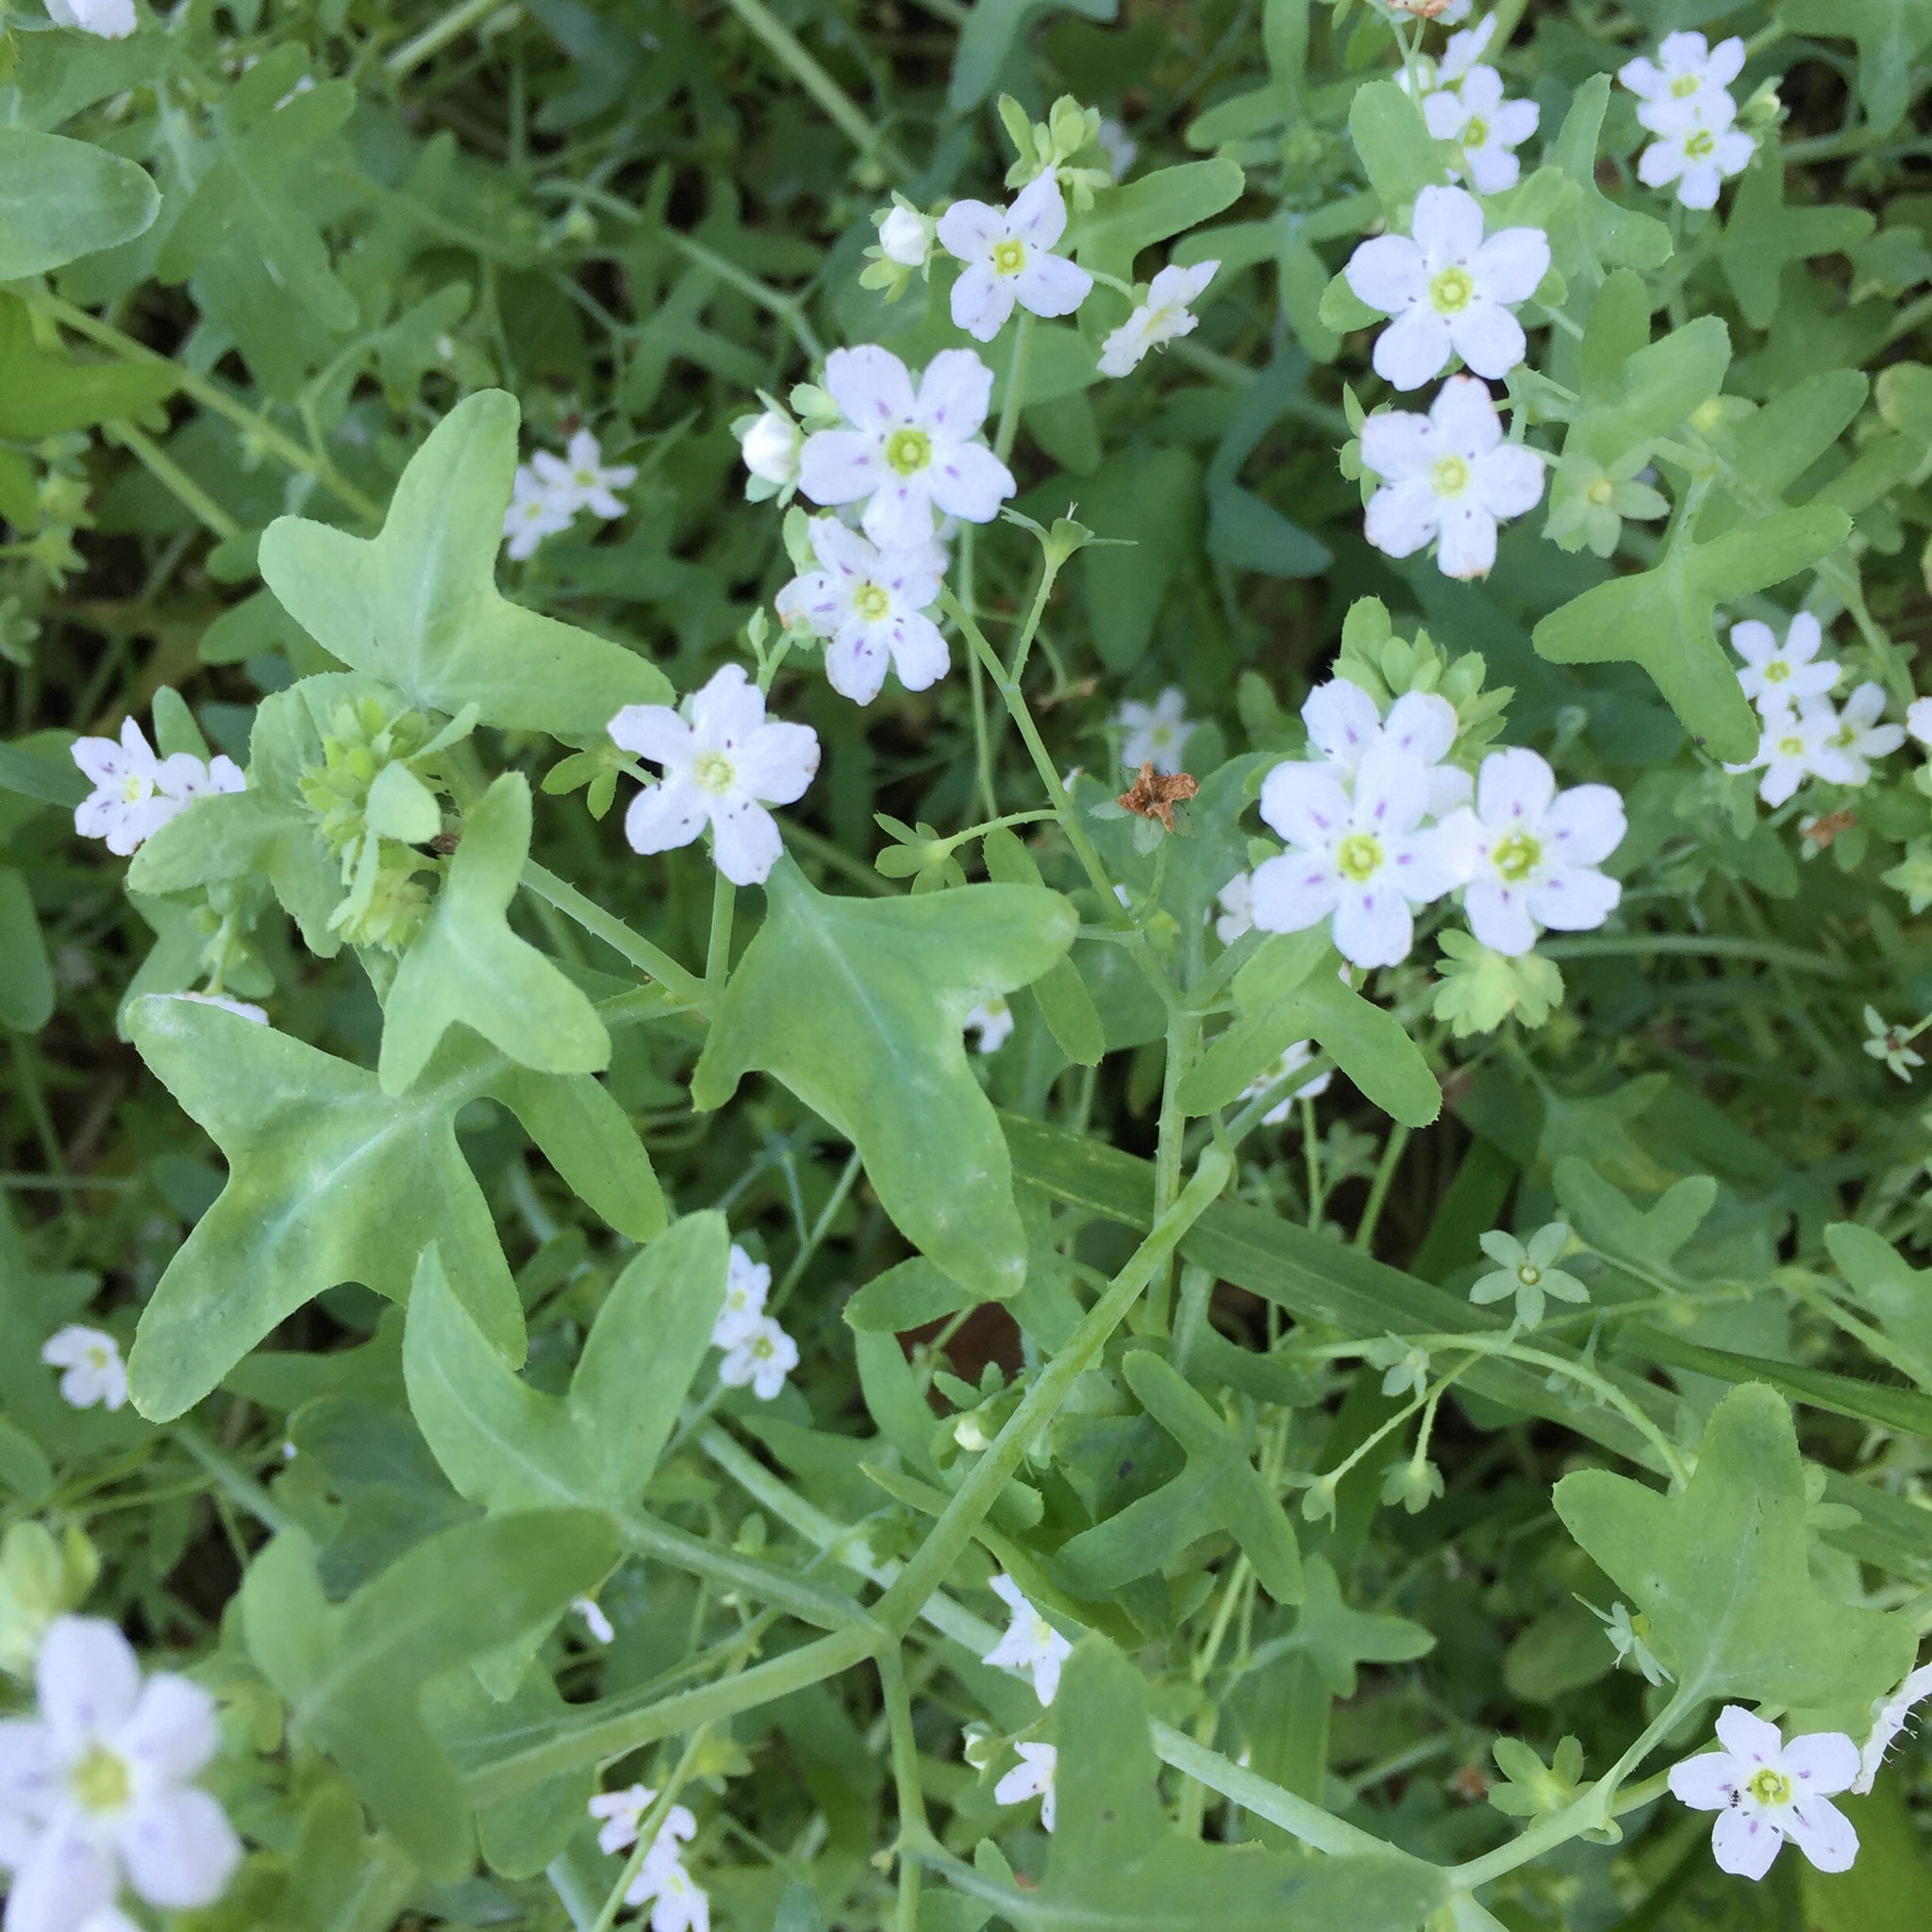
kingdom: Plantae
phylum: Tracheophyta
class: Magnoliopsida
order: Boraginales
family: Hydrophyllaceae
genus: Pholistoma
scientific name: Pholistoma membranaceum
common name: White fiesta-flower
